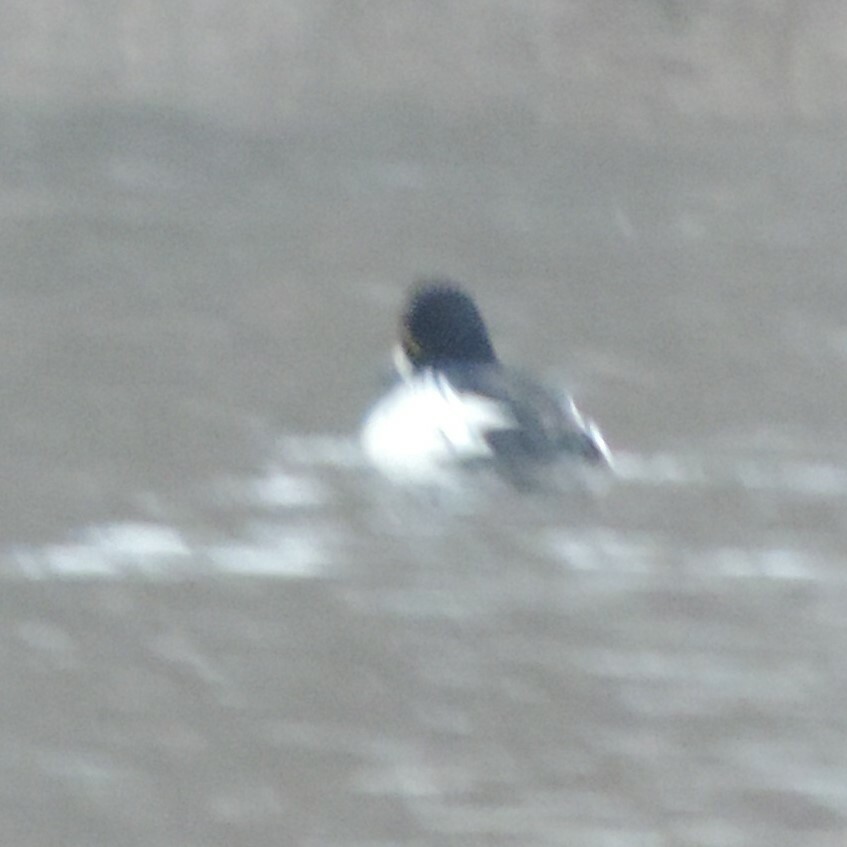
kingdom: Animalia
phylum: Chordata
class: Aves
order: Anseriformes
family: Anatidae
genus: Bucephala
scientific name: Bucephala clangula
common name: Common goldeneye
